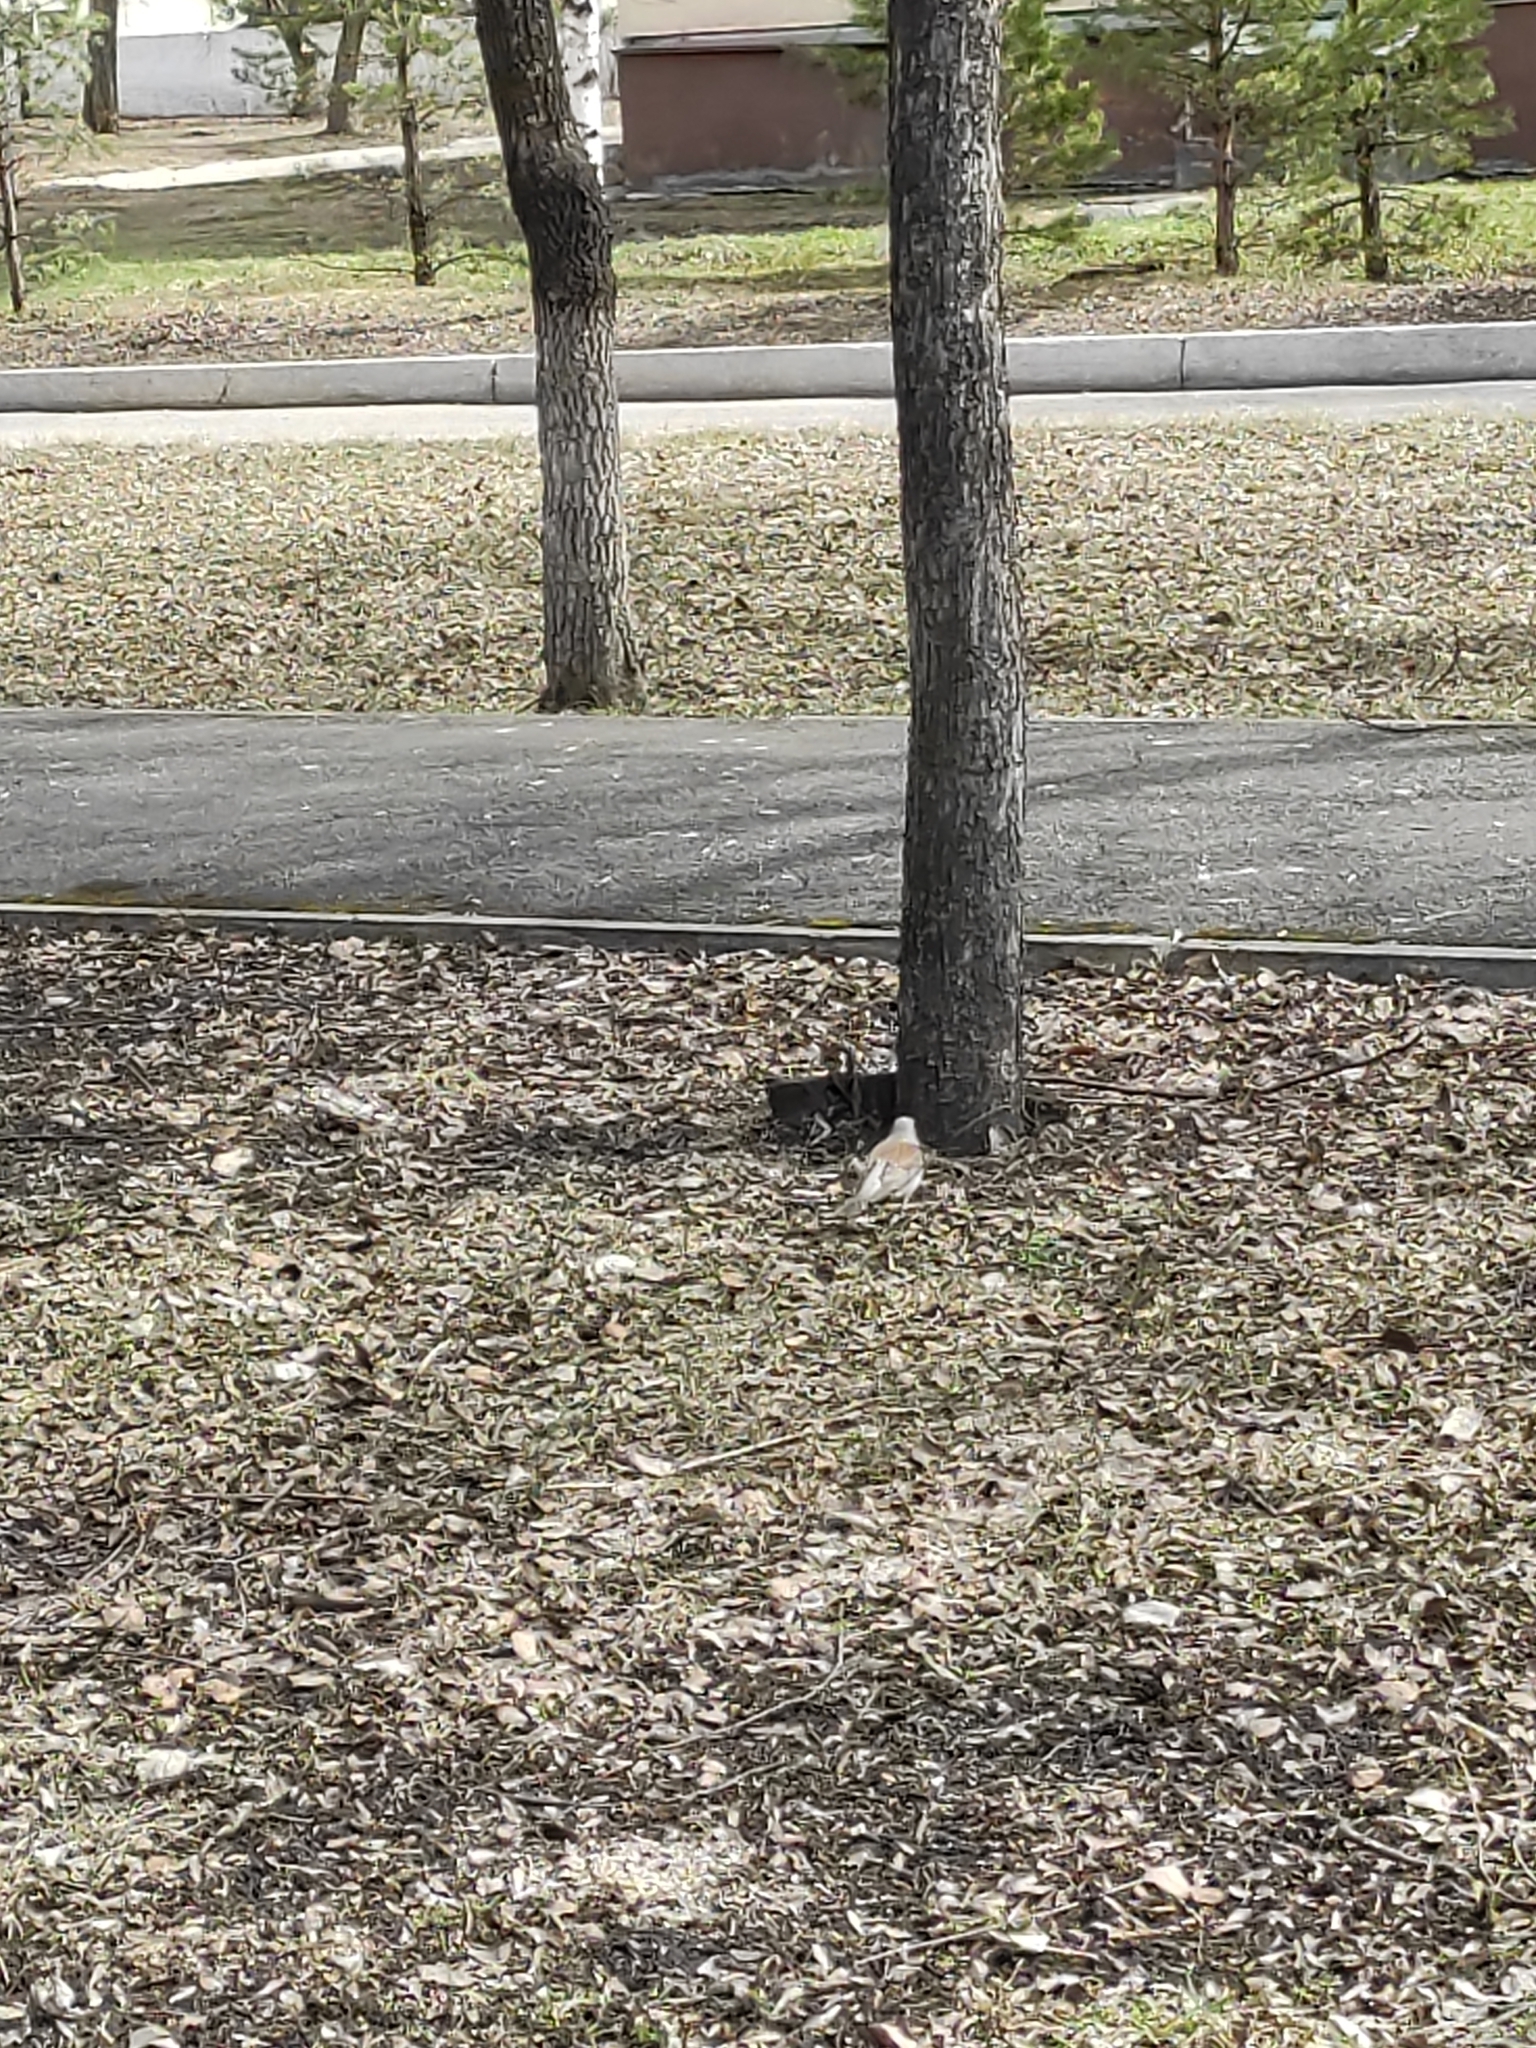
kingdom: Animalia
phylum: Chordata
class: Aves
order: Passeriformes
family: Turdidae
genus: Turdus
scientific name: Turdus pilaris
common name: Fieldfare
